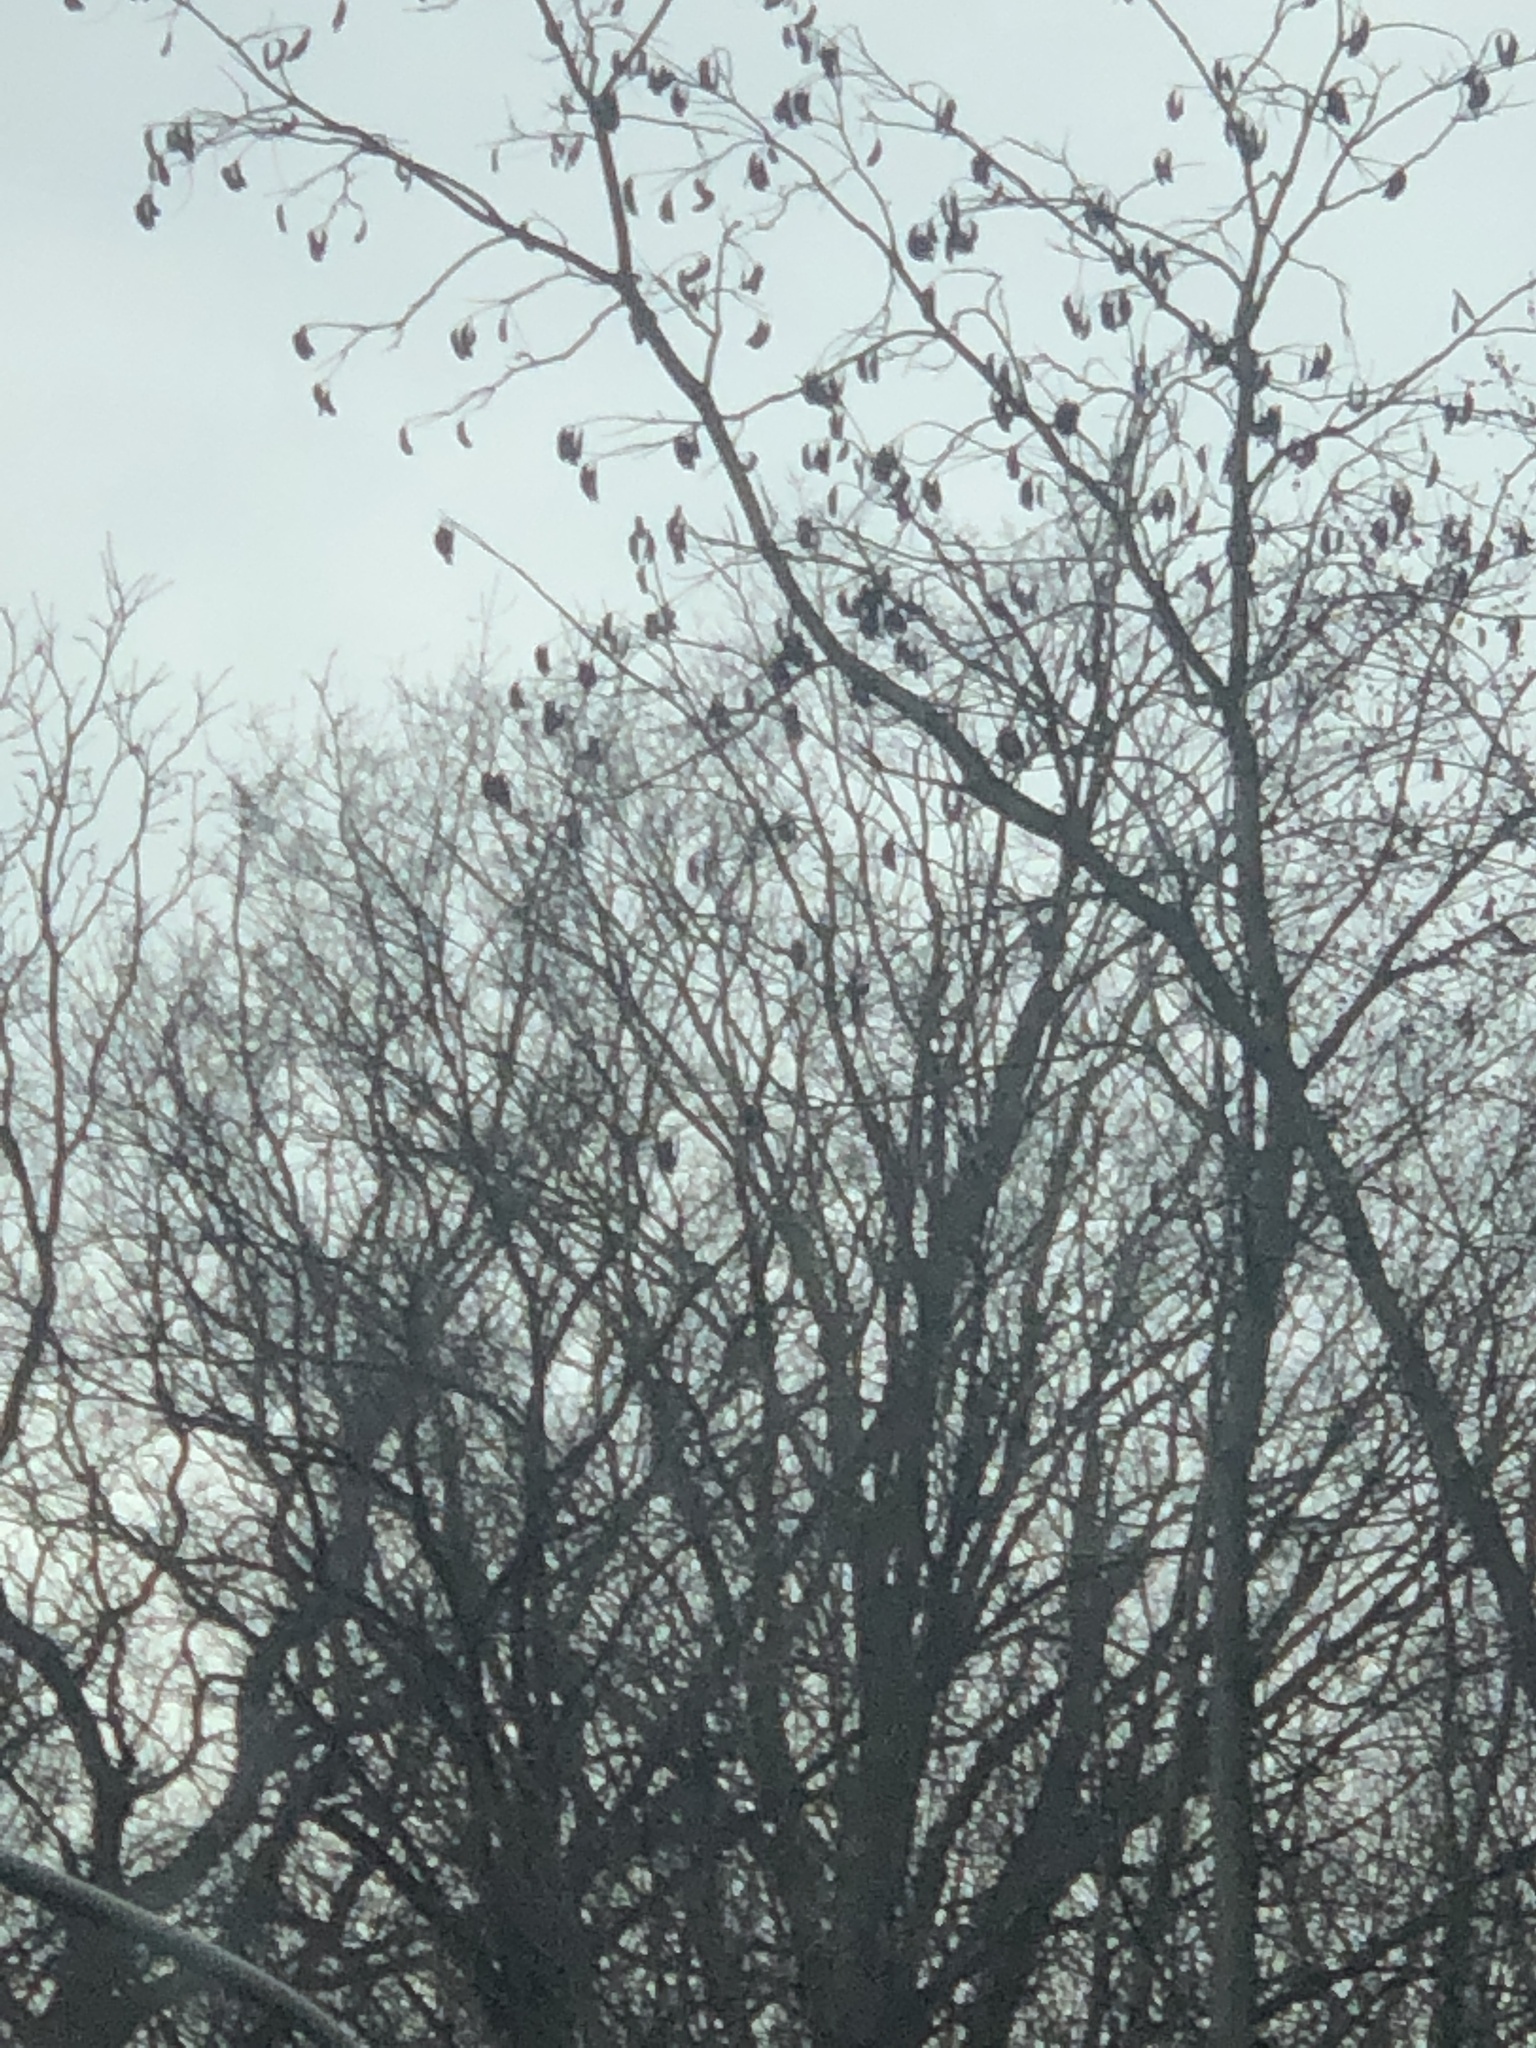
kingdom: Plantae
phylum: Tracheophyta
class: Magnoliopsida
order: Fabales
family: Fabaceae
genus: Gymnocladus
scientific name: Gymnocladus dioicus
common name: Kentucky coffee-tree
